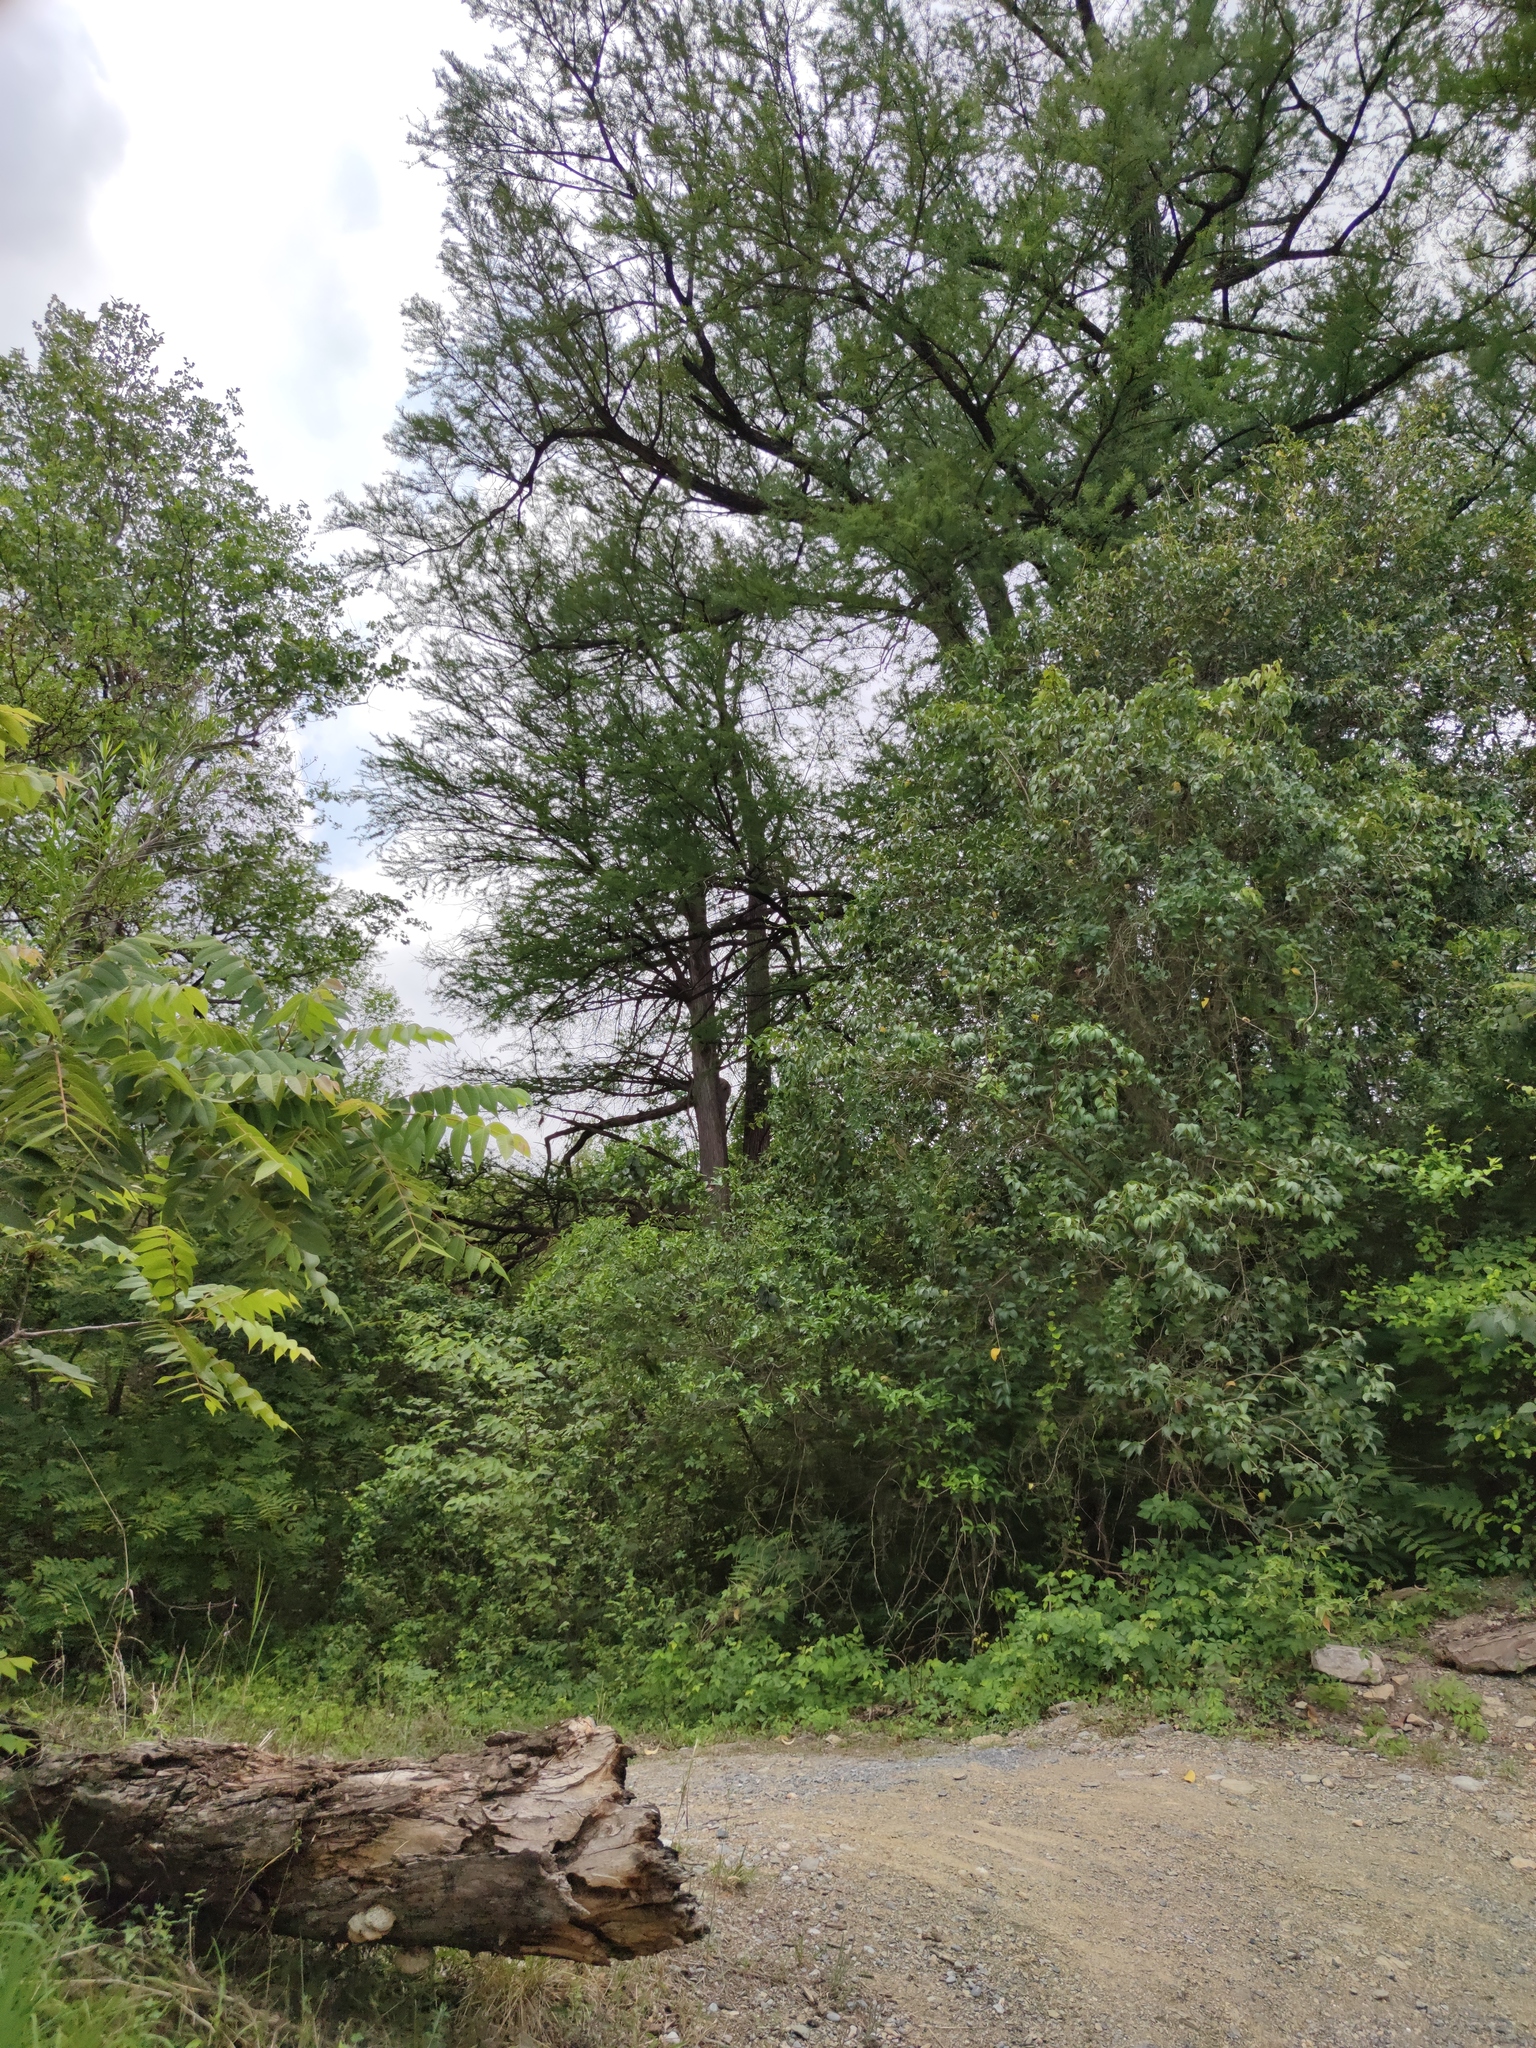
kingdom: Plantae
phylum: Tracheophyta
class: Pinopsida
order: Pinales
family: Cupressaceae
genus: Taxodium
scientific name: Taxodium mucronatum
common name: Montezume bald cypress
